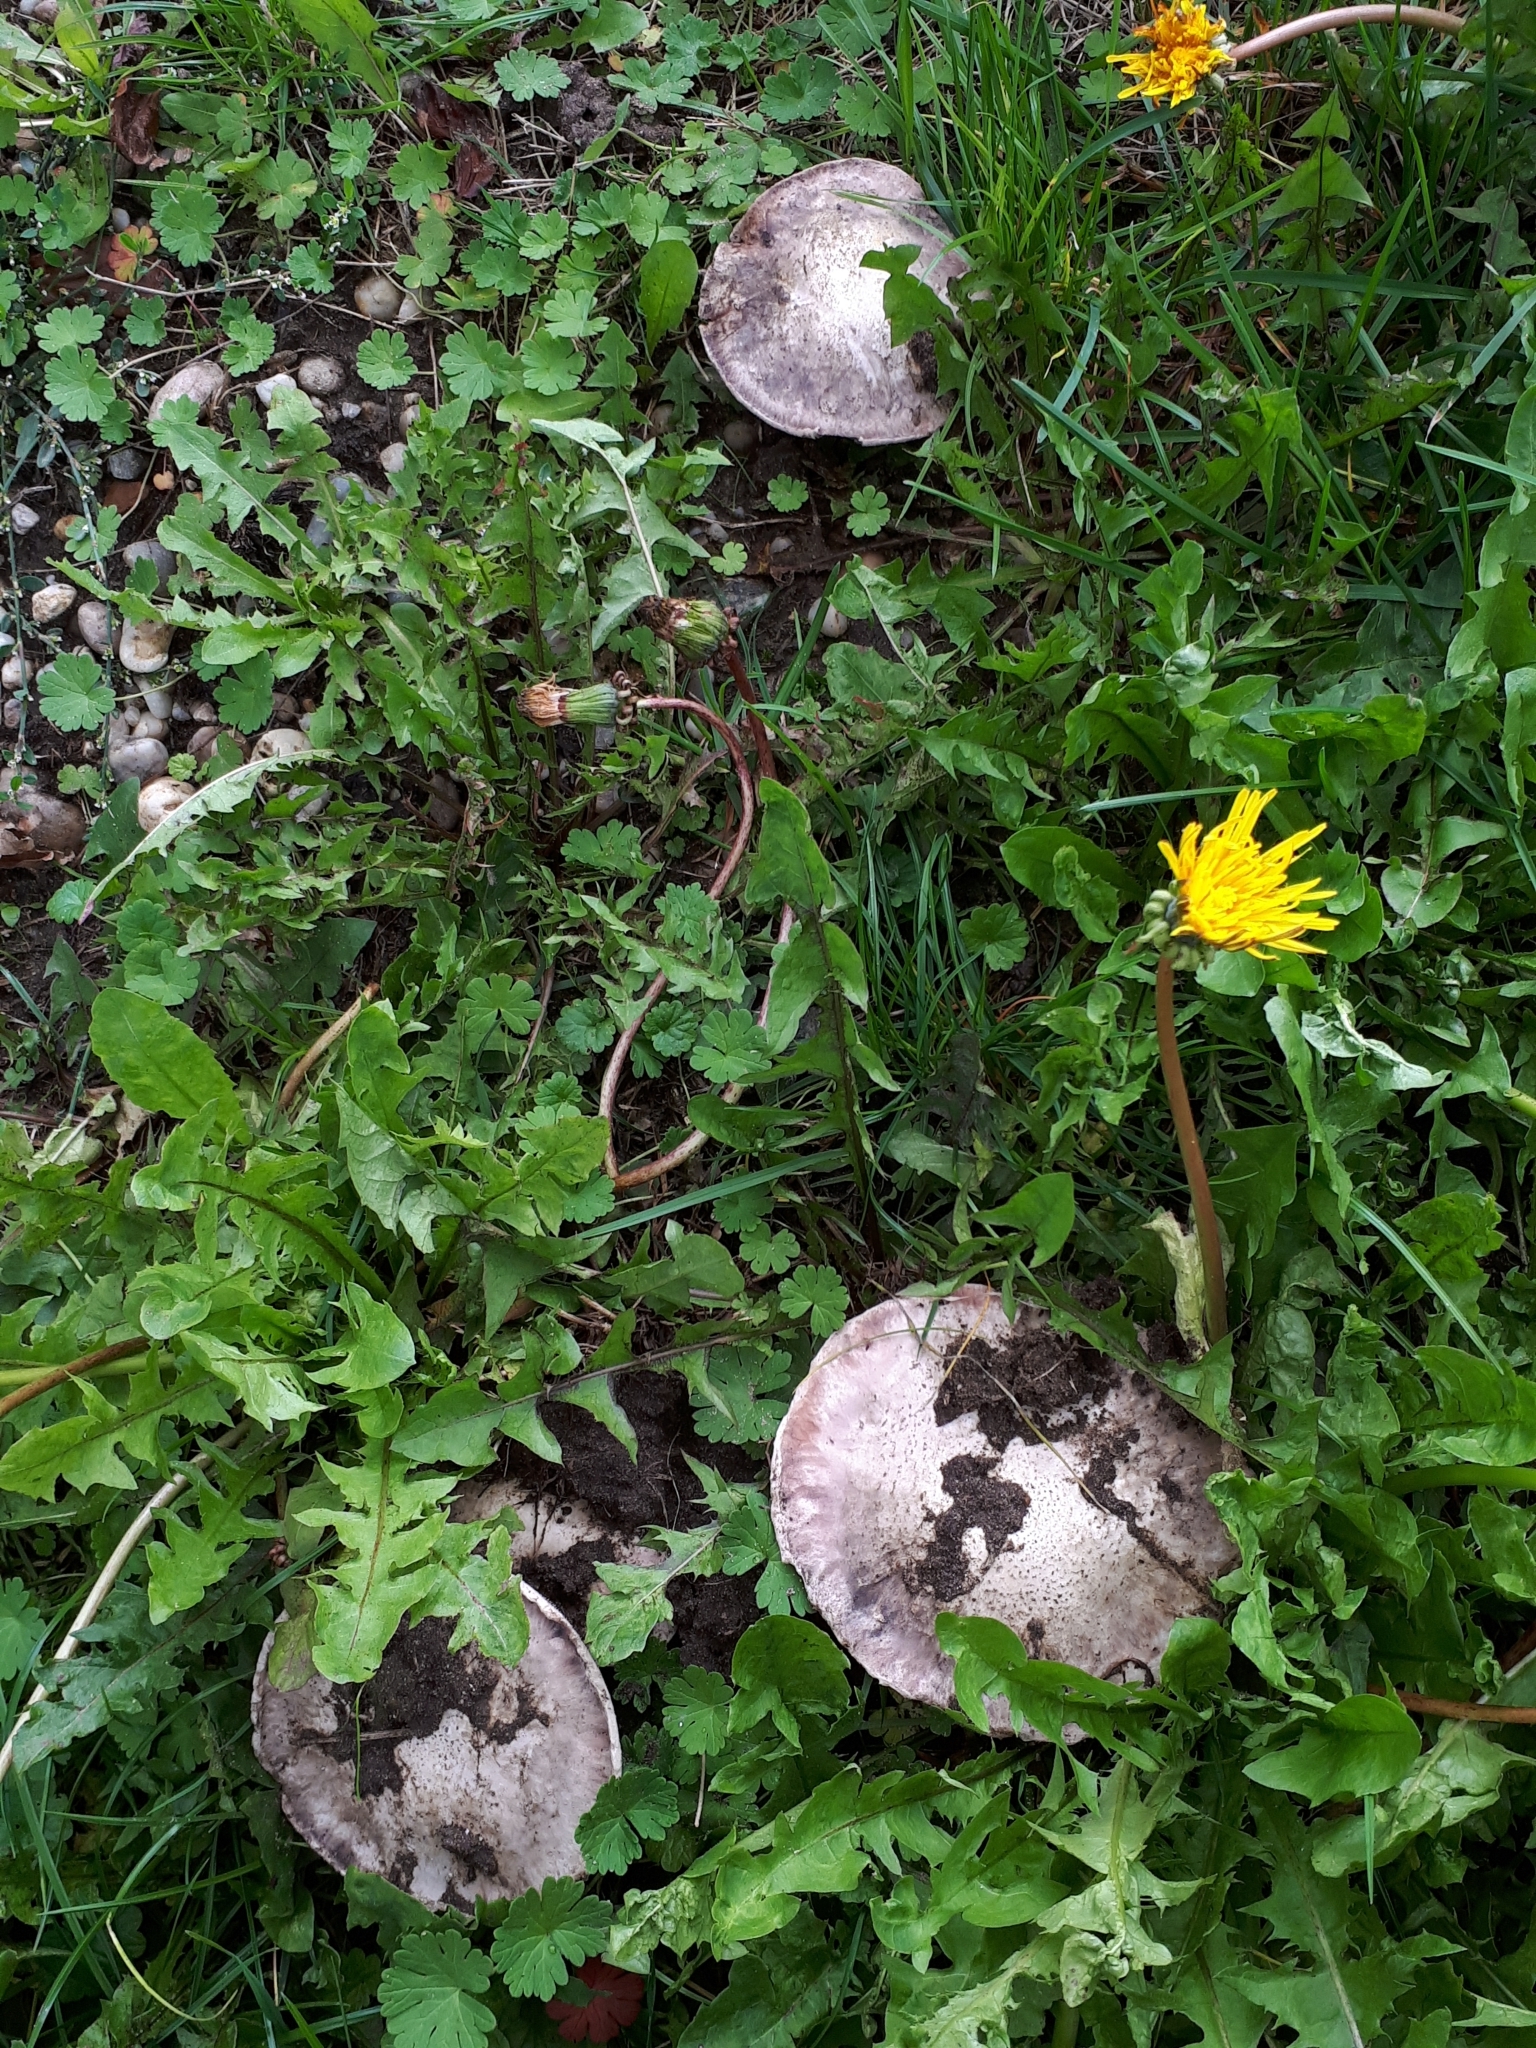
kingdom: Fungi
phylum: Basidiomycota
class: Agaricomycetes
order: Agaricales
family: Agaricaceae
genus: Agaricus
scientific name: Agaricus bitorquis
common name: Pavement mushroom
